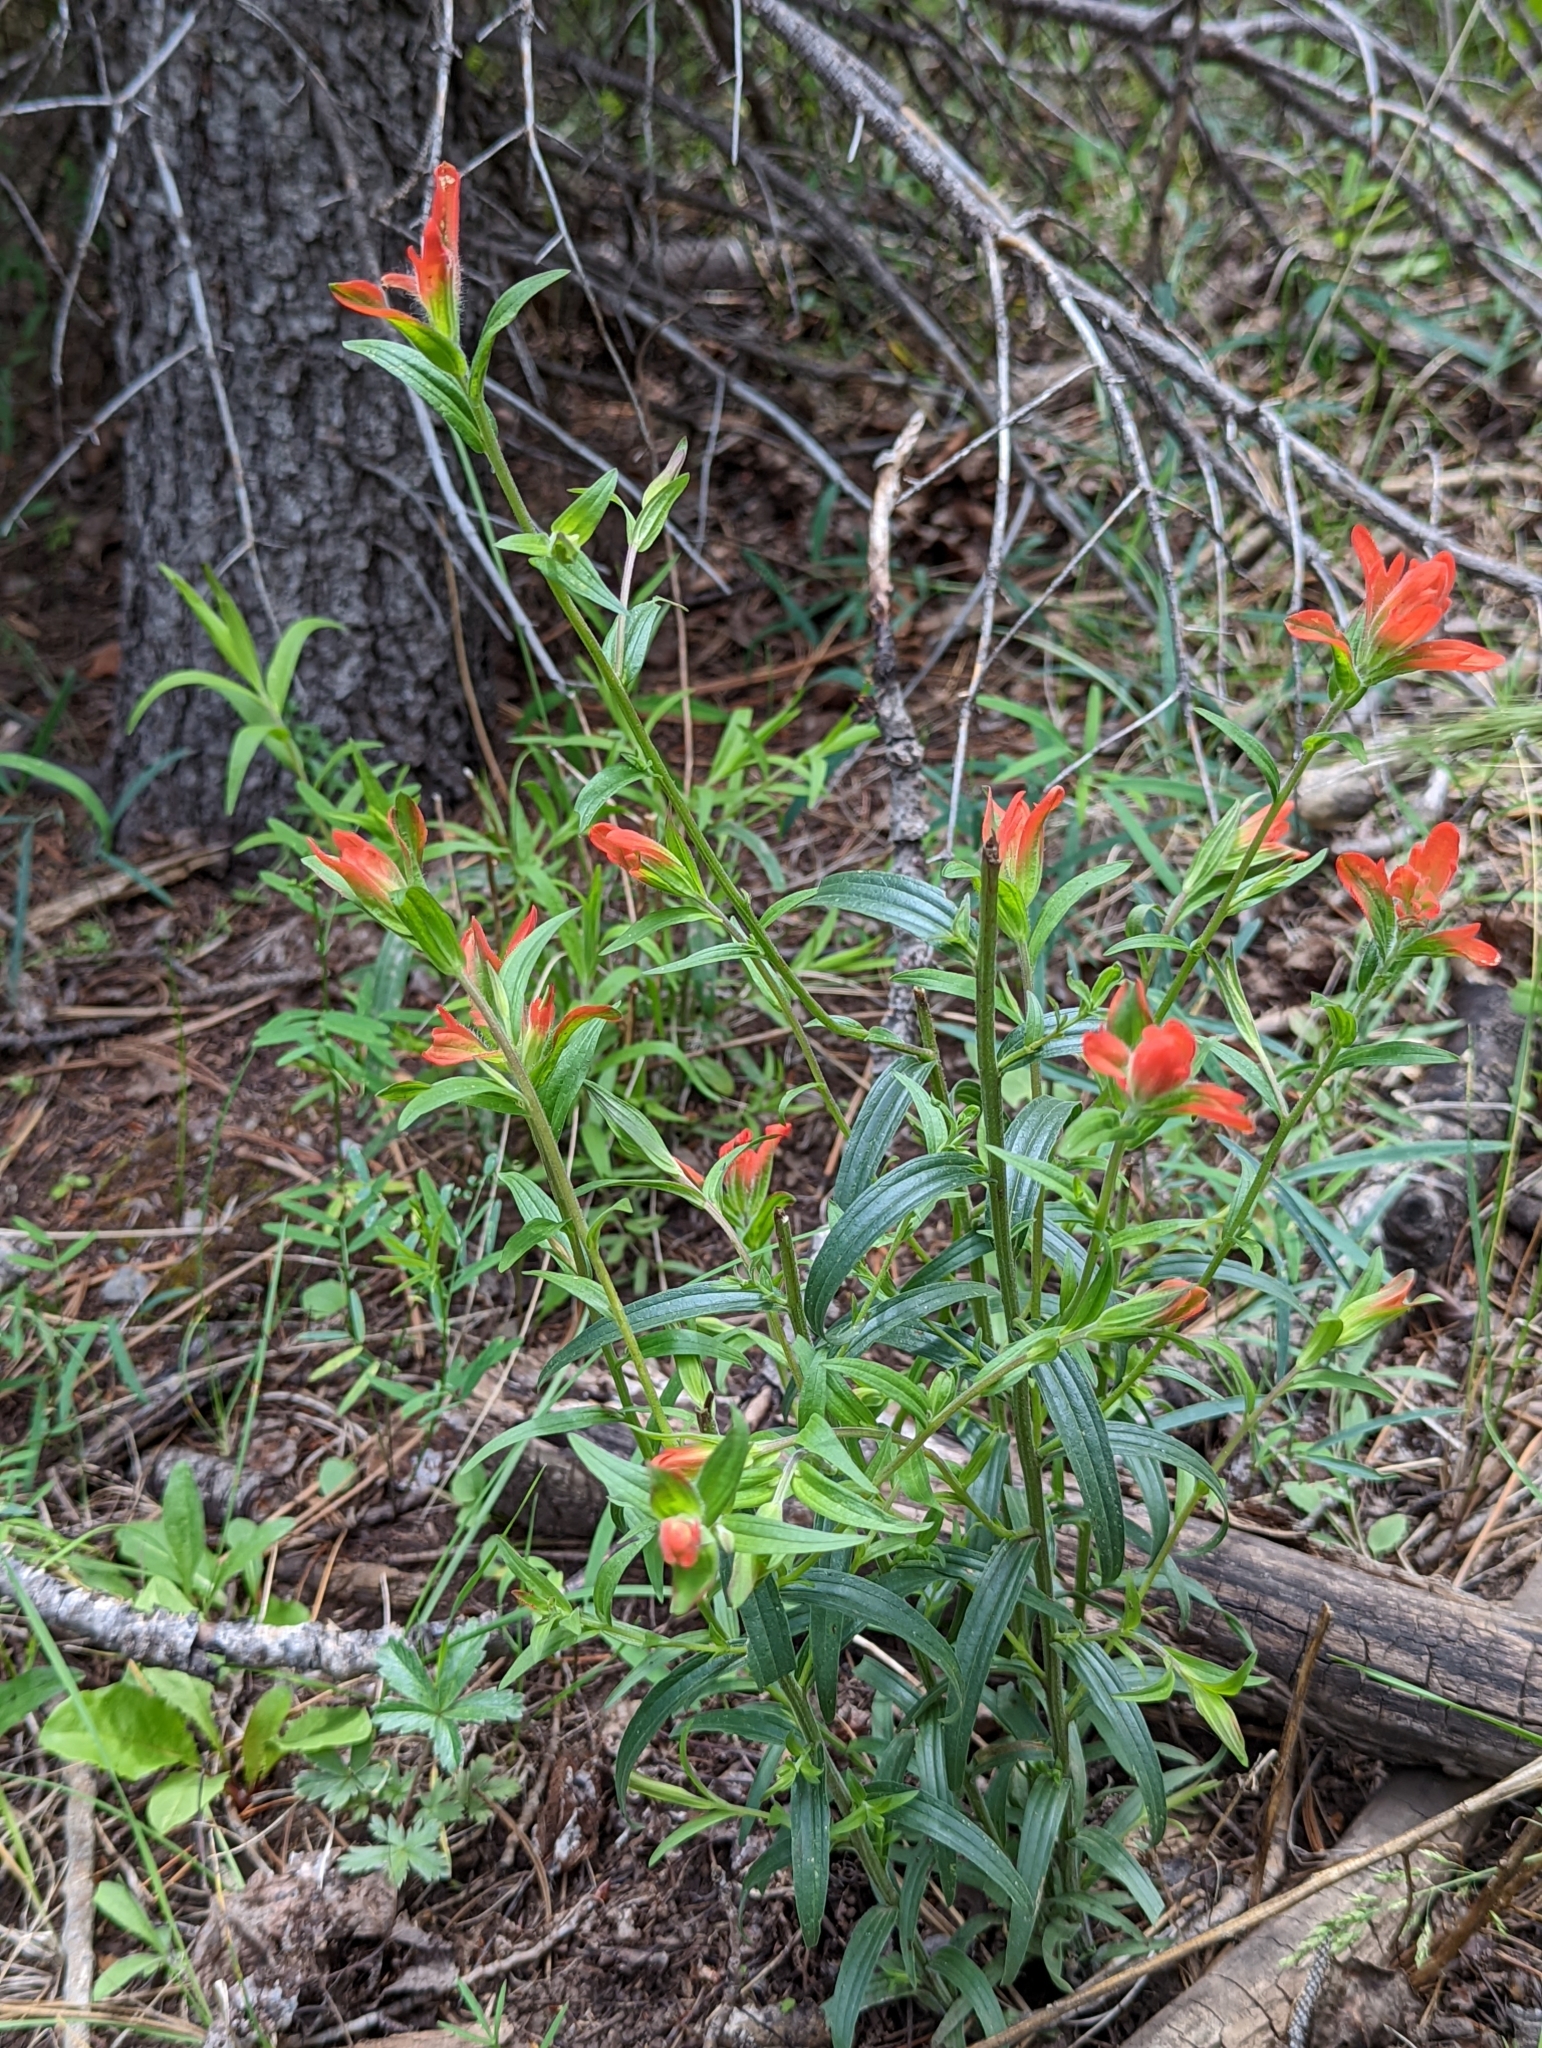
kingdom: Plantae
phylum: Tracheophyta
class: Magnoliopsida
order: Lamiales
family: Orobanchaceae
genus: Castilleja
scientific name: Castilleja nelsonii
